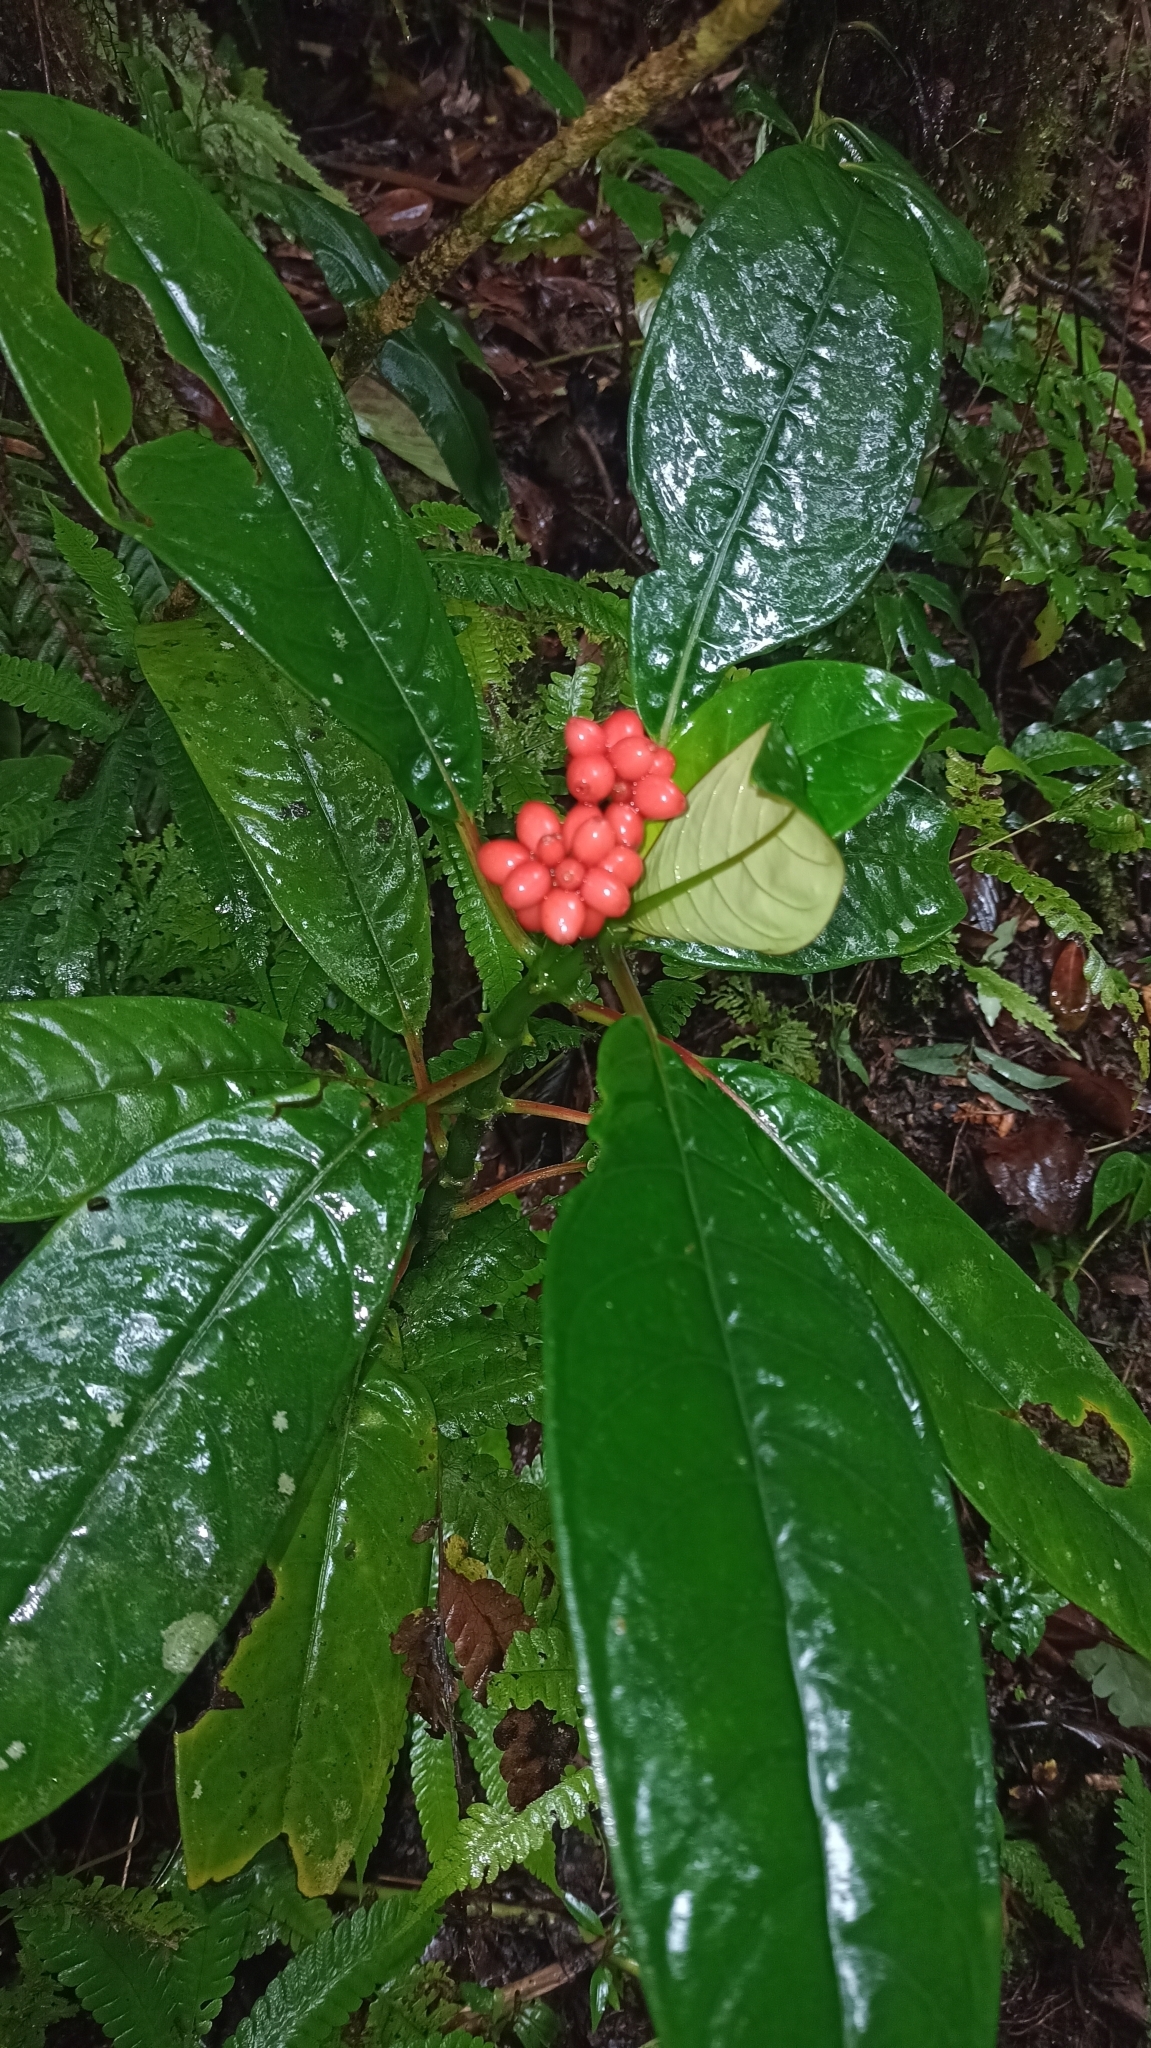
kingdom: Plantae
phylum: Tracheophyta
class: Magnoliopsida
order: Gentianales
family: Rubiaceae
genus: Notopleura
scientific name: Notopleura uliginosa
